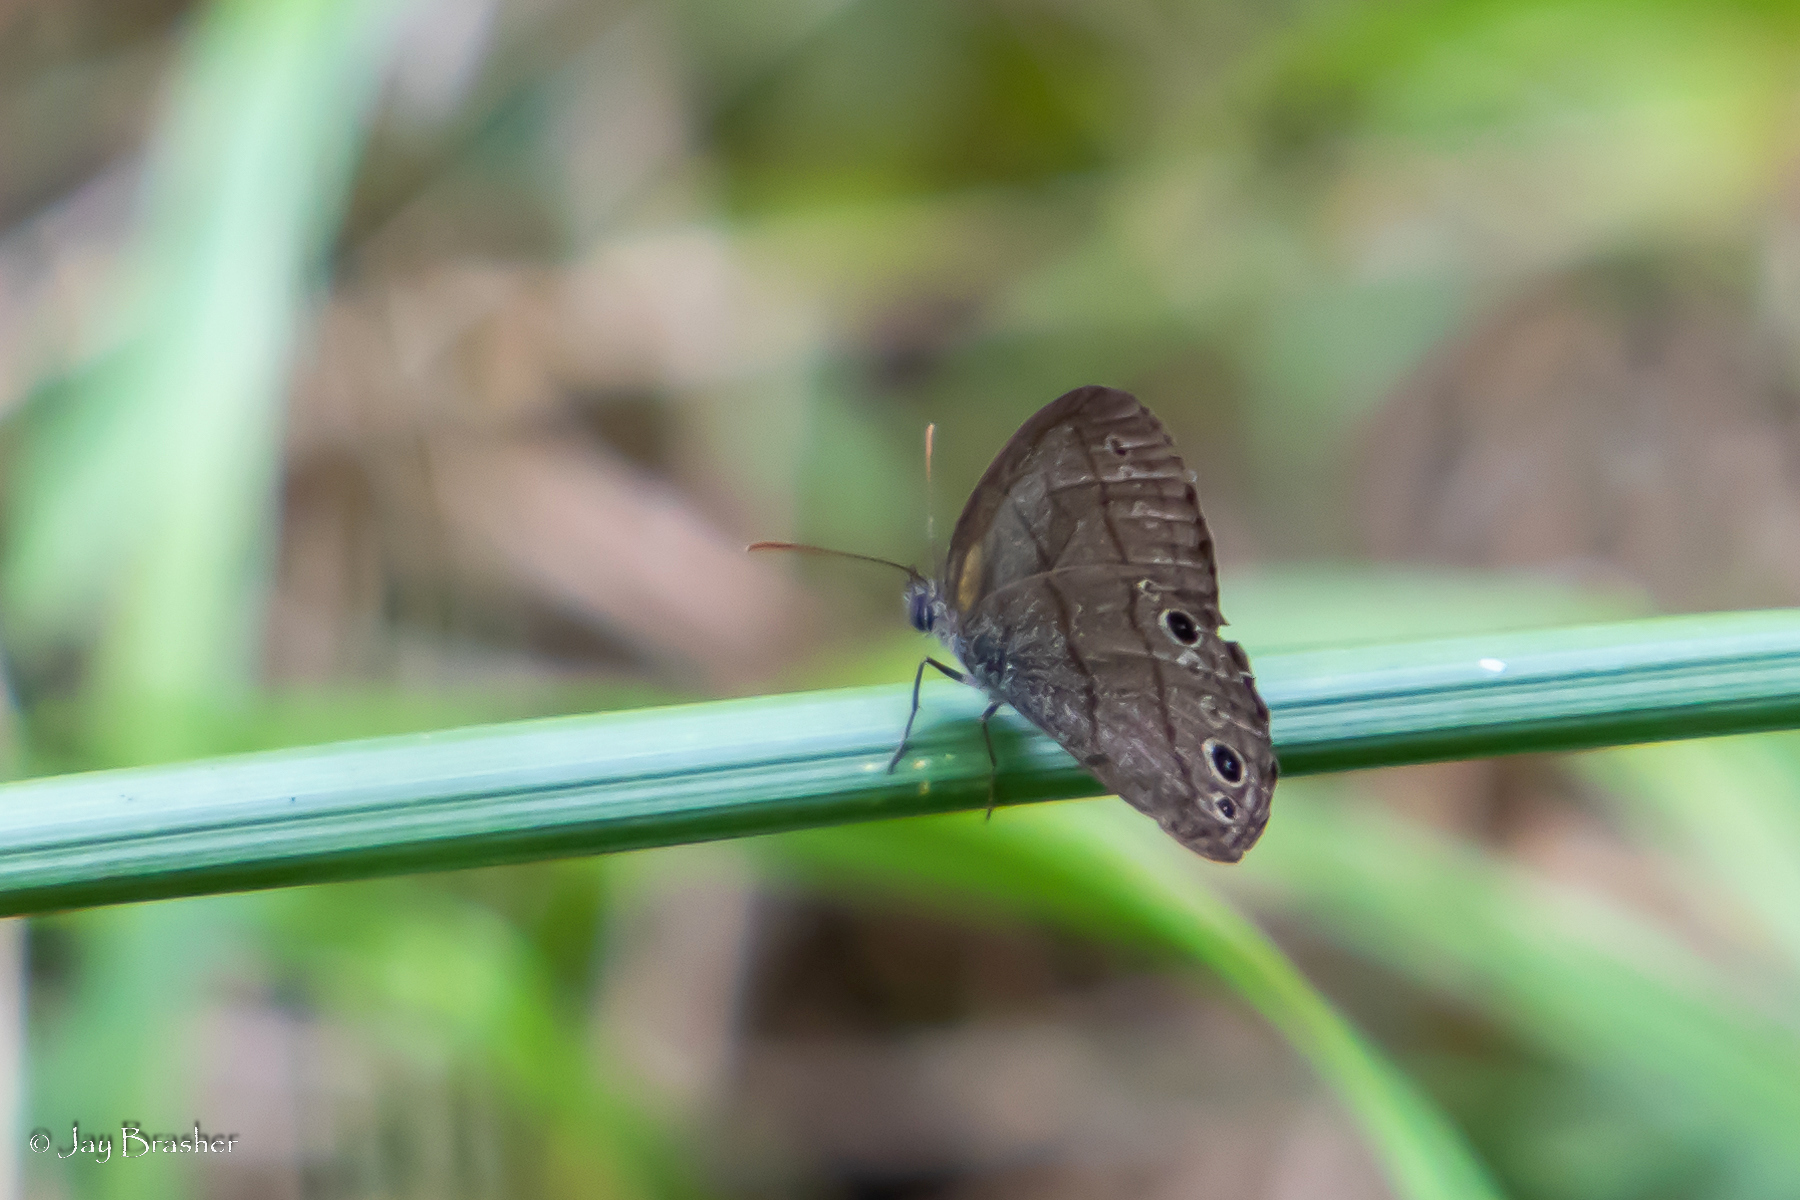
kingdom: Animalia
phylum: Arthropoda
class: Insecta
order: Lepidoptera
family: Nymphalidae
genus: Hermeuptychia
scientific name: Hermeuptychia hermes
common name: Hermes satyr
